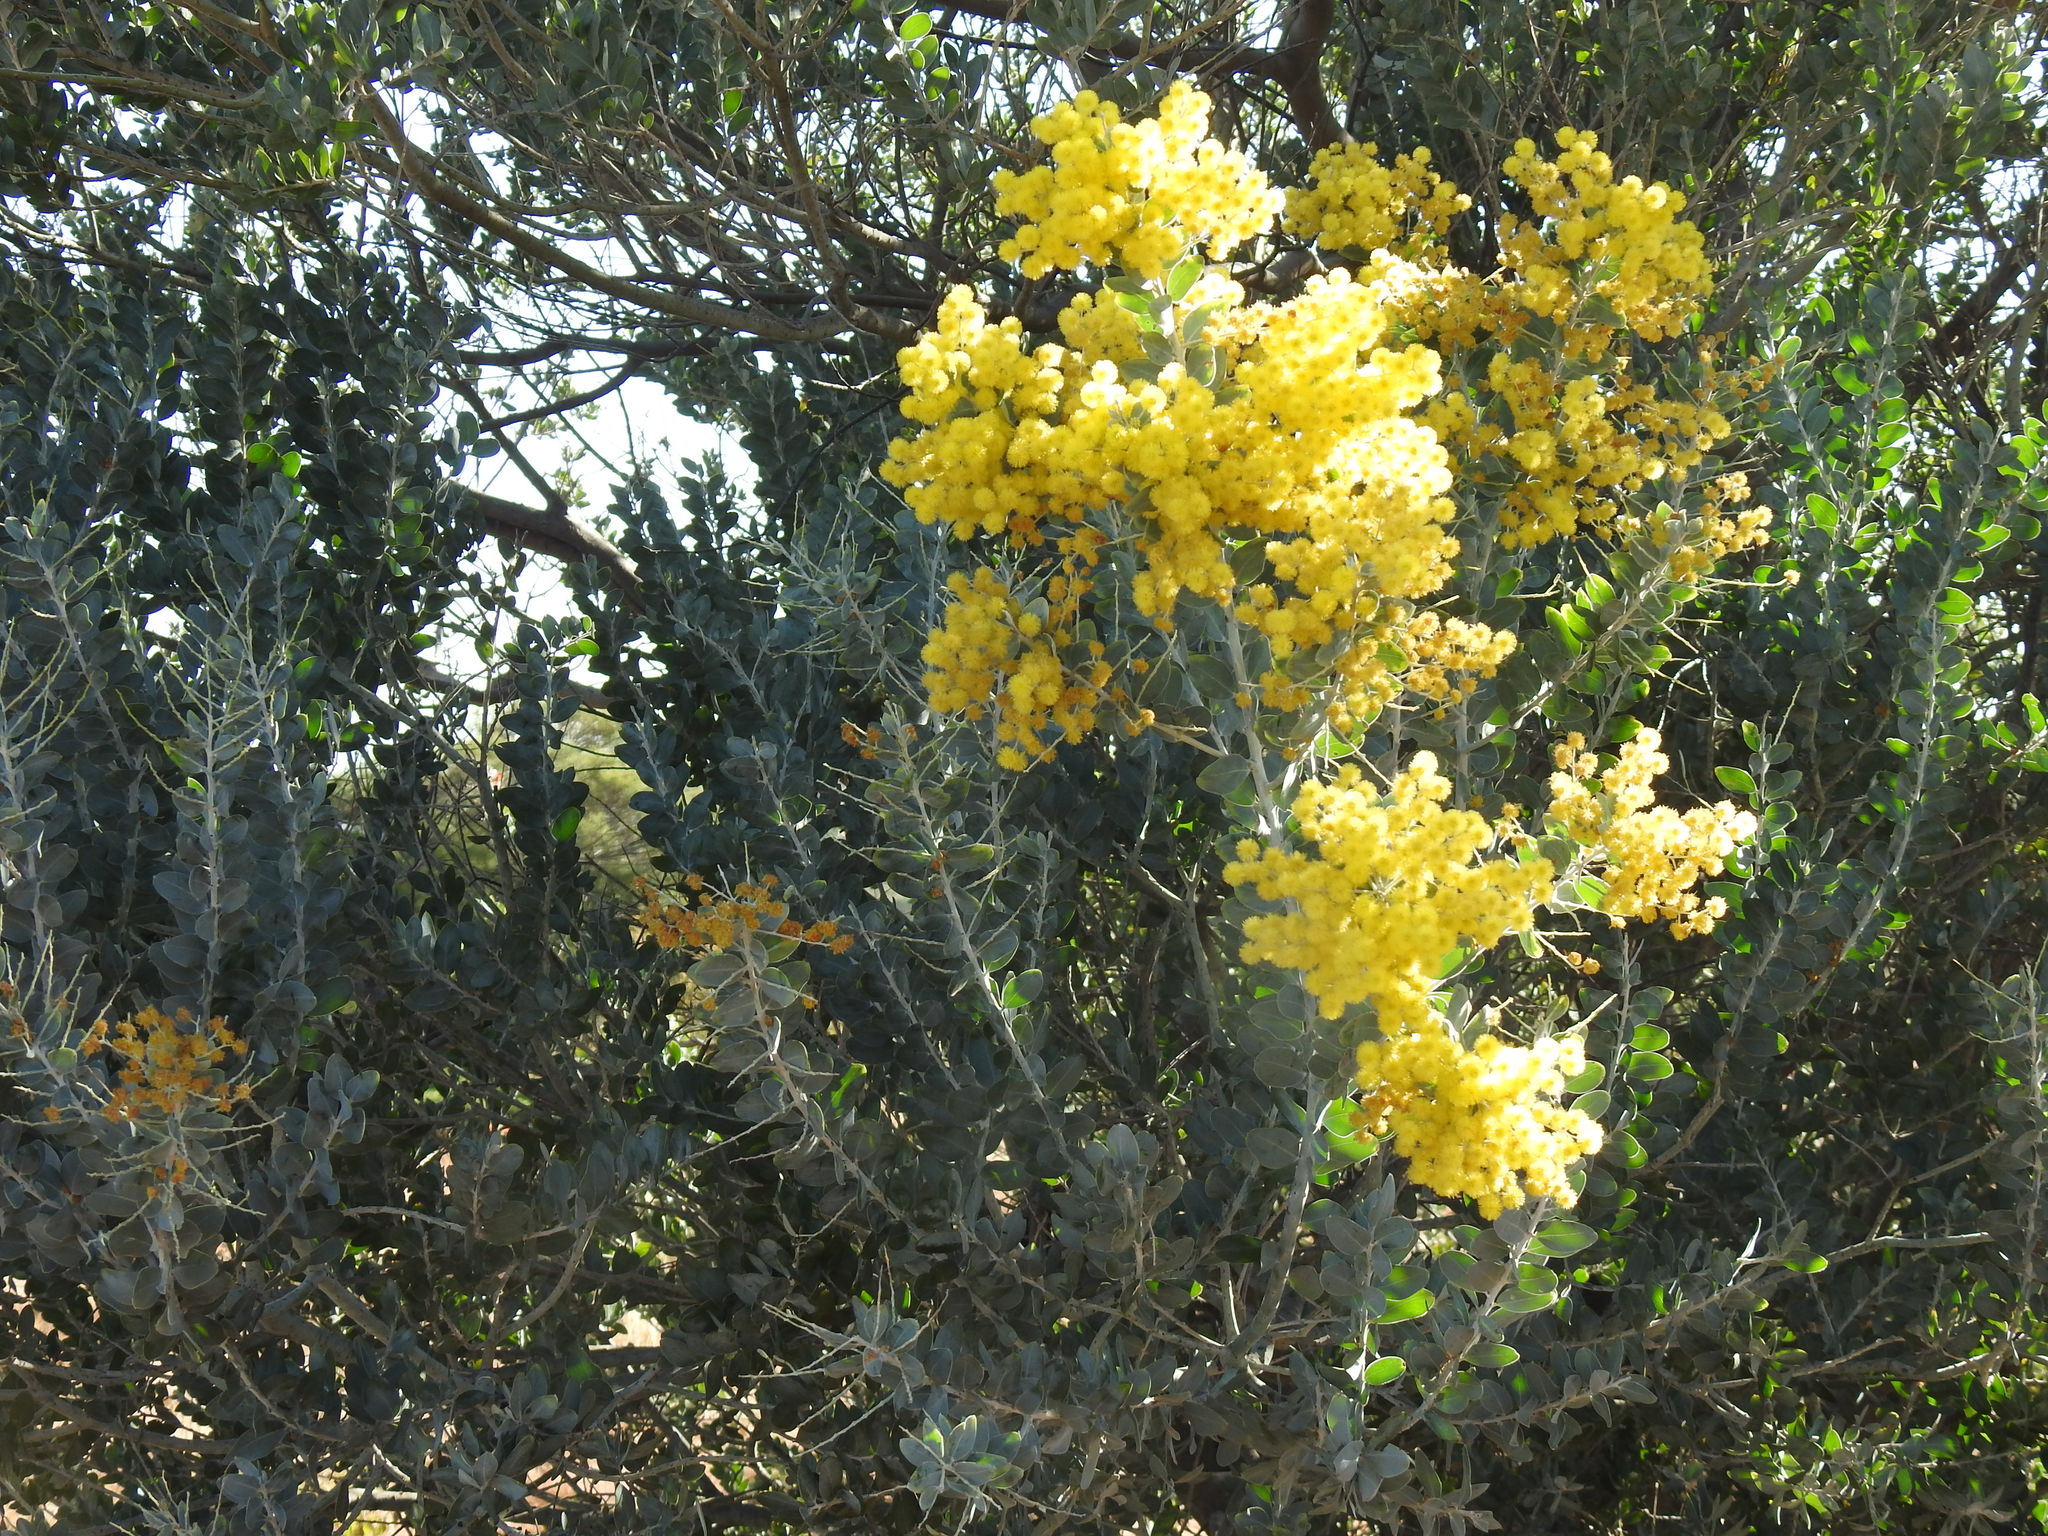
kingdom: Plantae
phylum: Tracheophyta
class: Magnoliopsida
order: Fabales
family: Fabaceae
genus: Acacia
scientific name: Acacia podalyriifolia
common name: Pearl wattle
